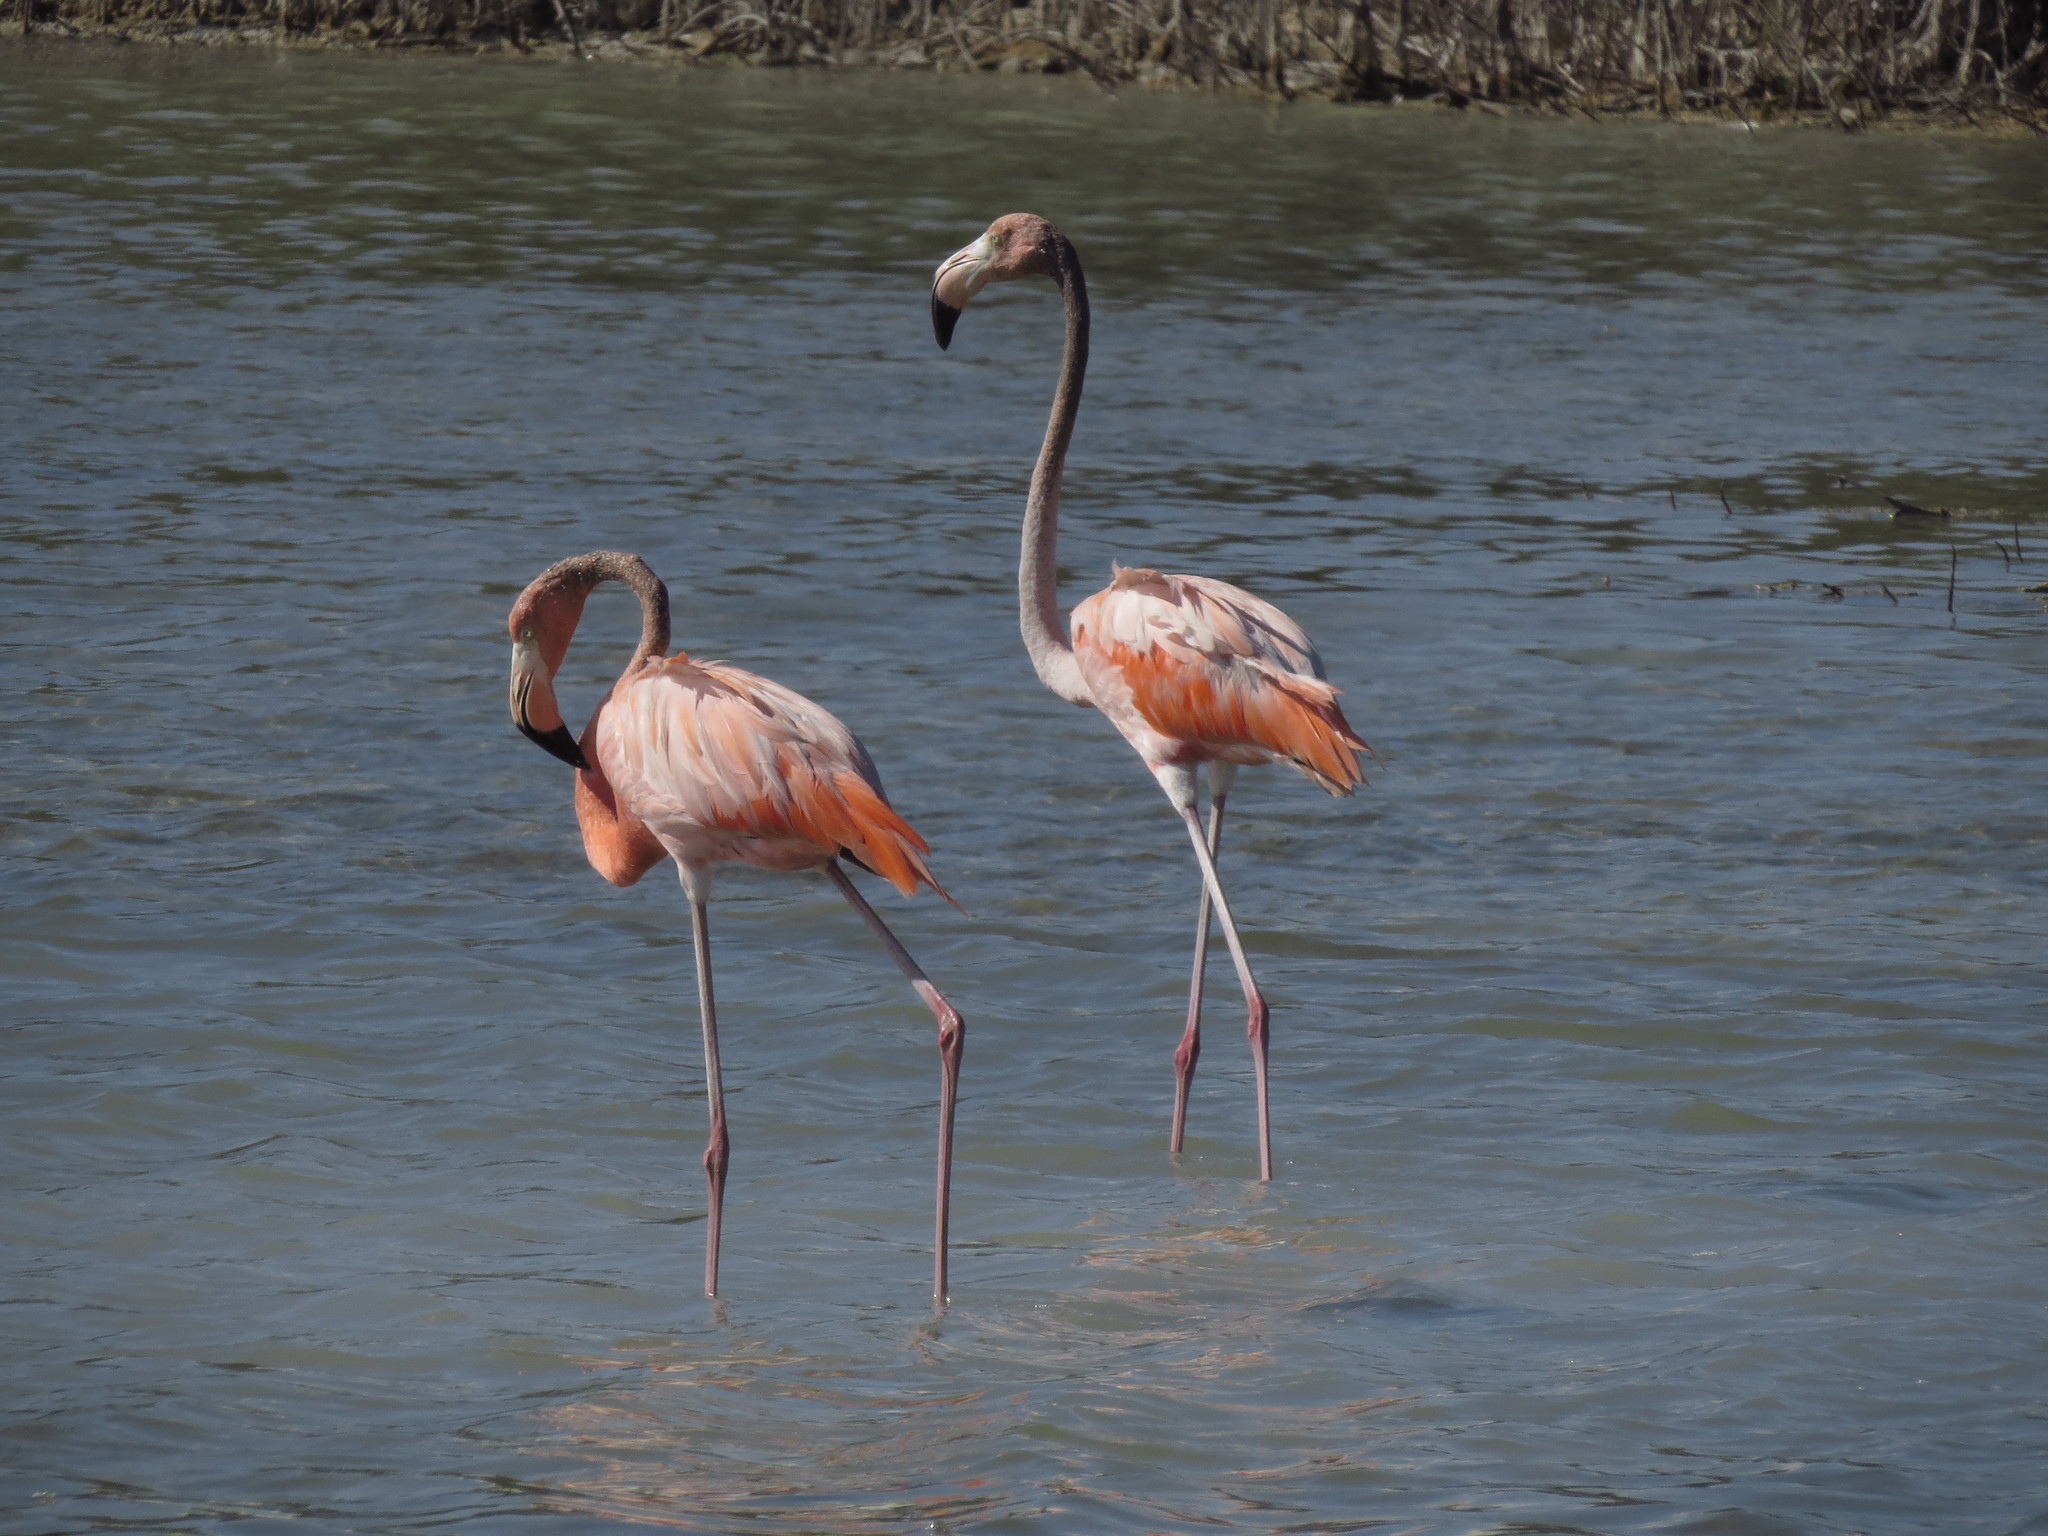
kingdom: Animalia
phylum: Chordata
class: Aves
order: Phoenicopteriformes
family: Phoenicopteridae
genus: Phoenicopterus
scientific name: Phoenicopterus ruber
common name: American flamingo
